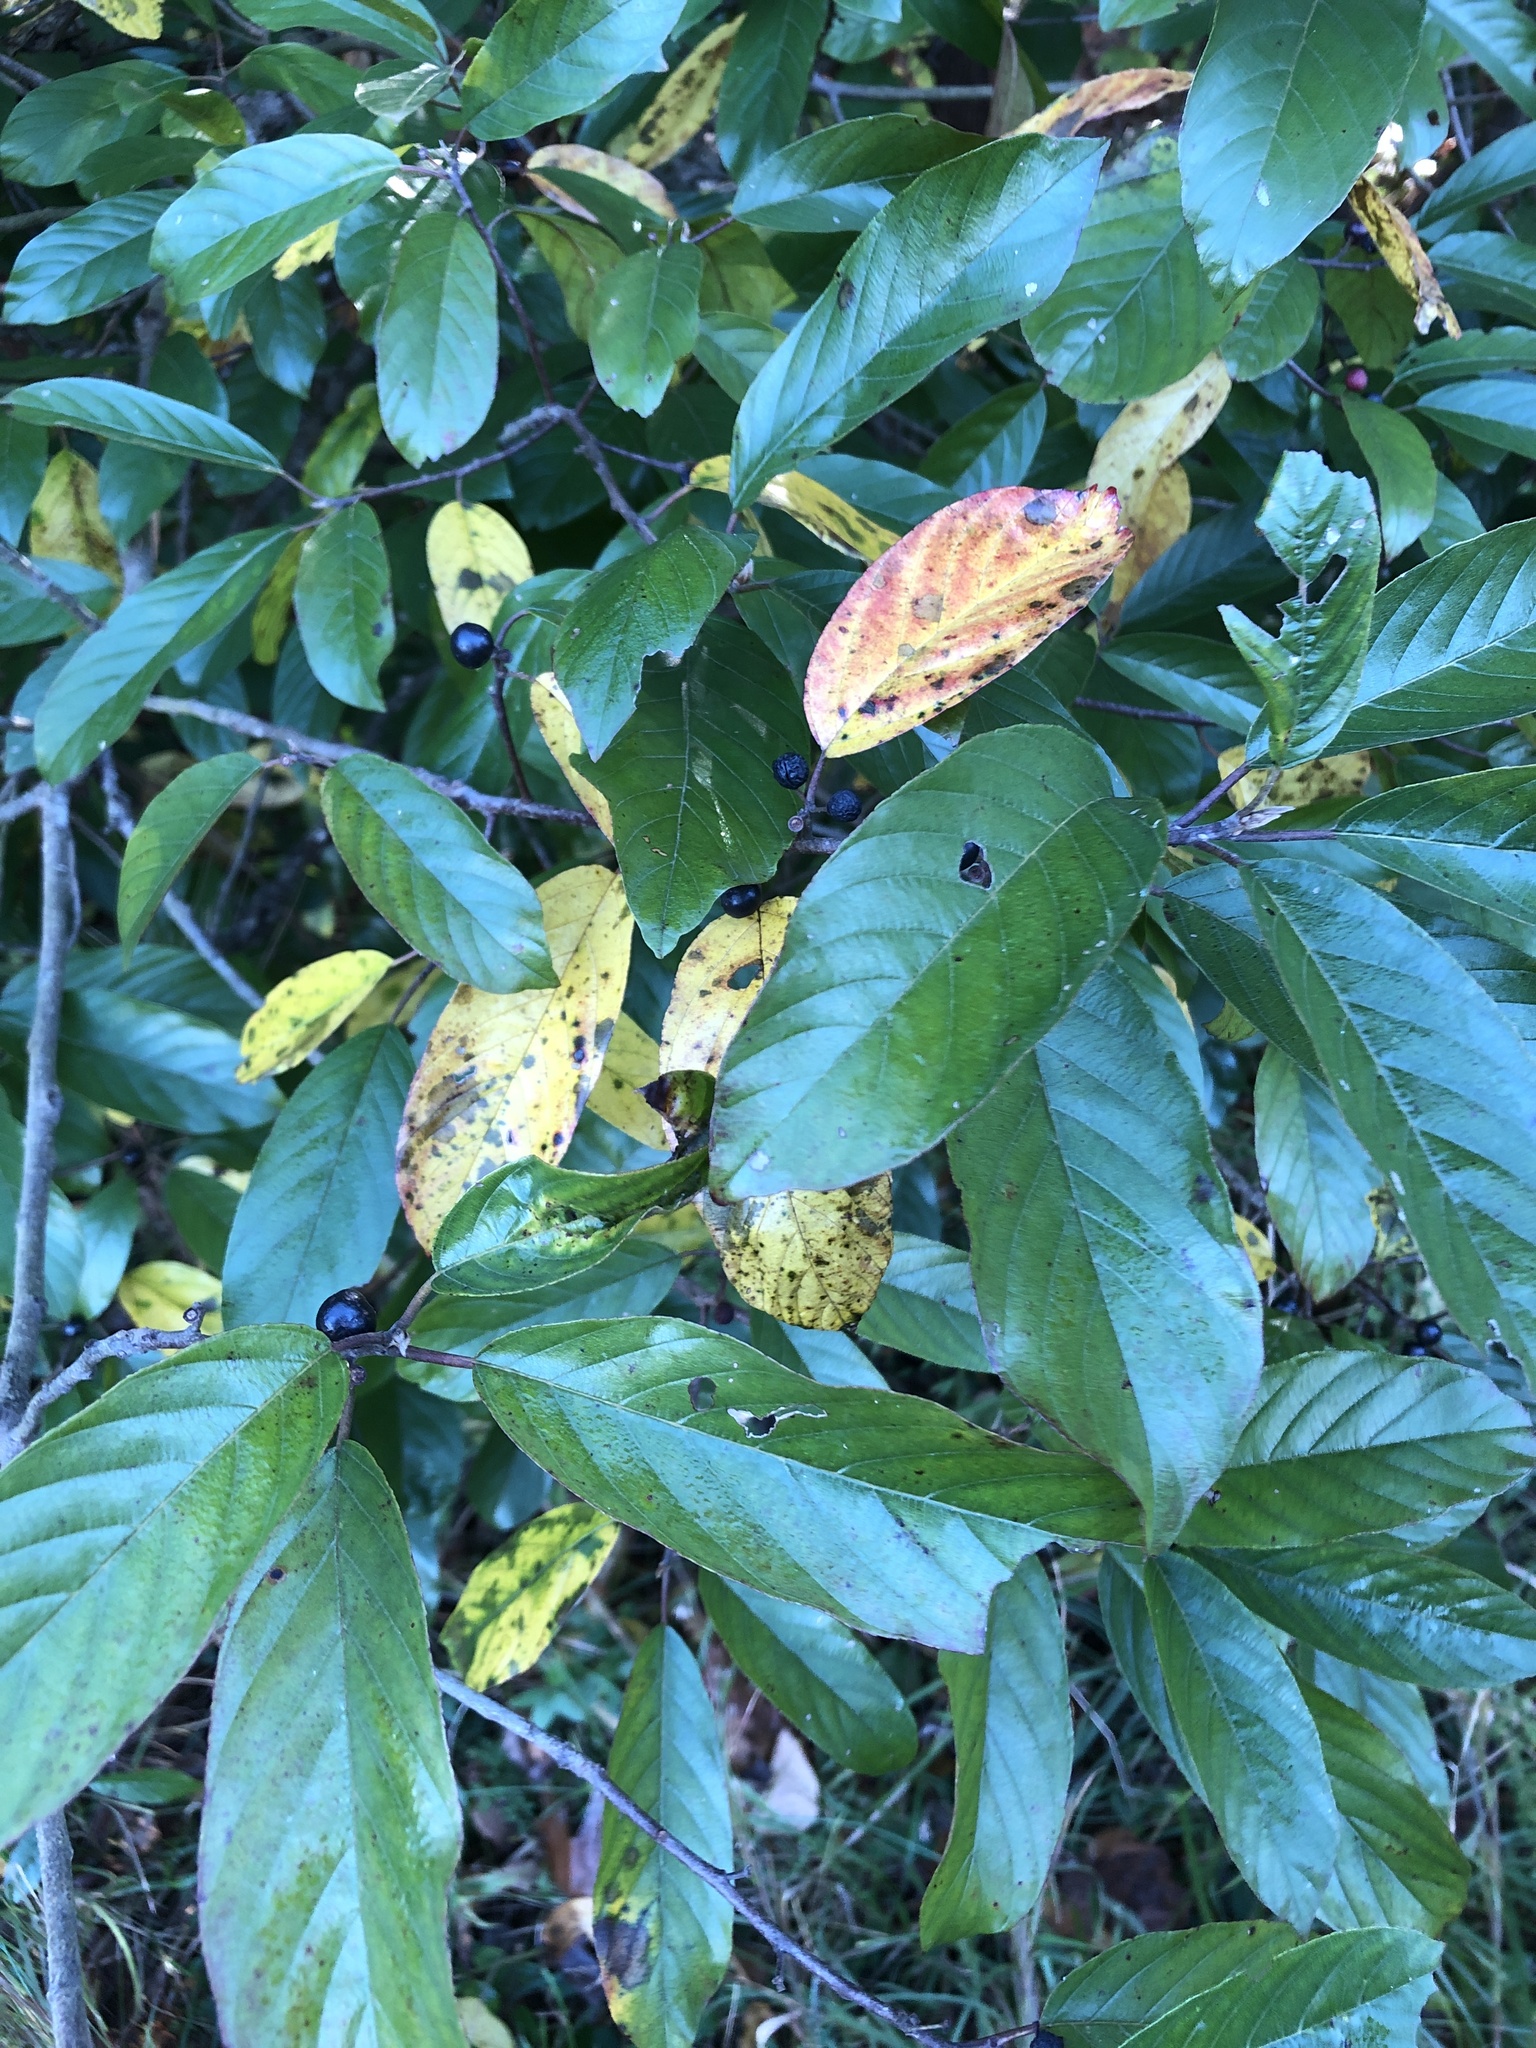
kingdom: Plantae
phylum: Tracheophyta
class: Magnoliopsida
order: Rosales
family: Rhamnaceae
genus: Frangula
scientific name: Frangula caroliniana
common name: Carolina buckthorn
